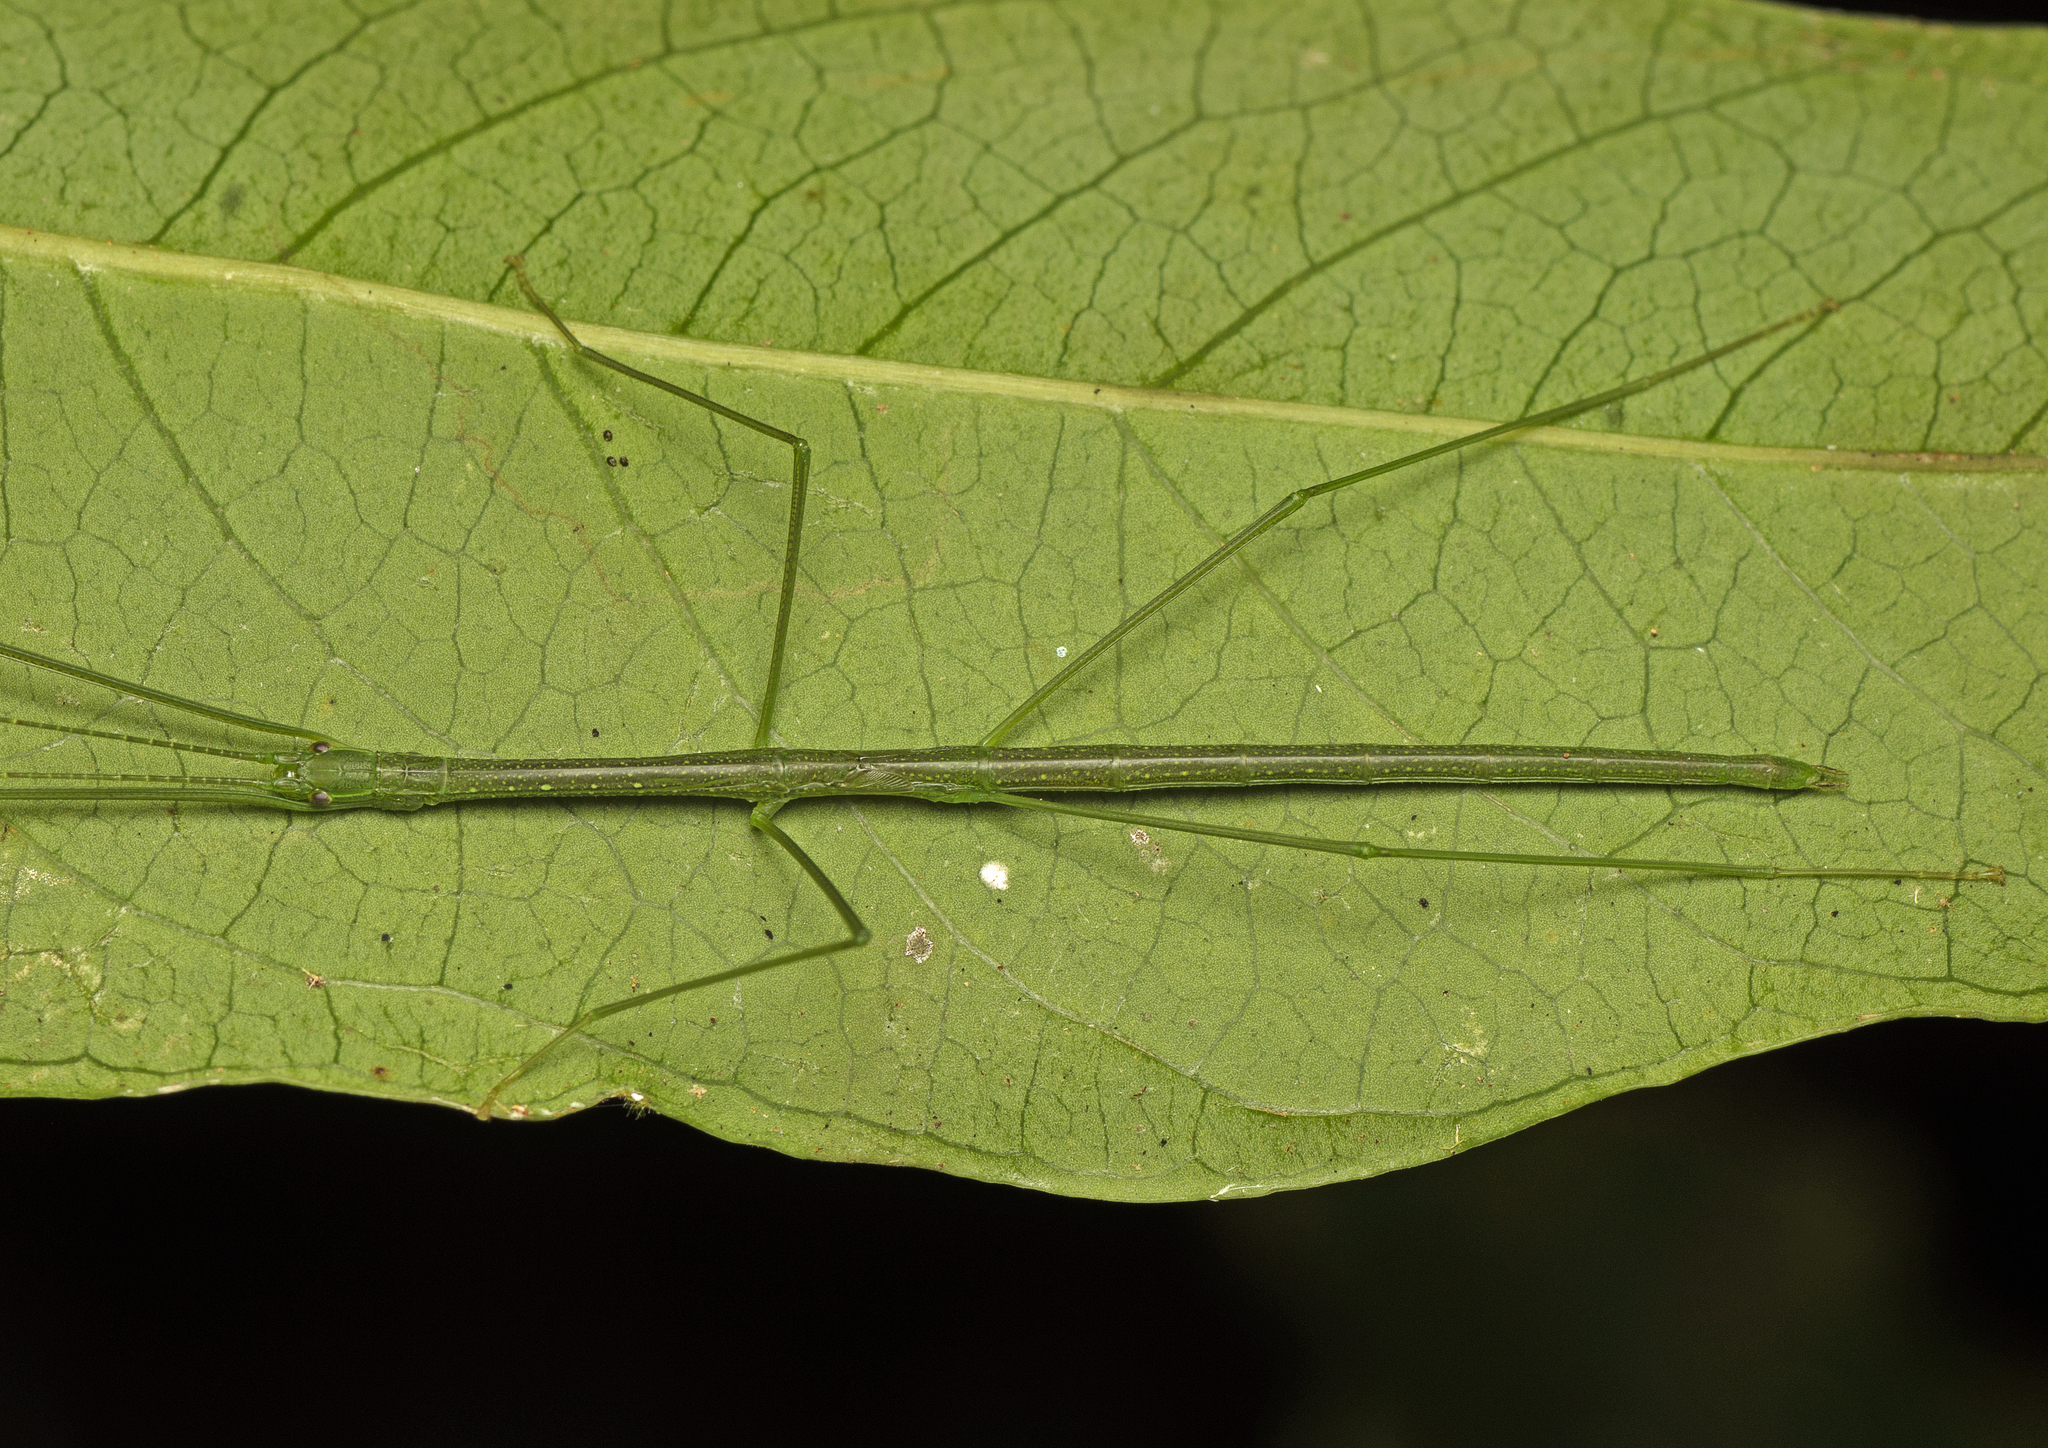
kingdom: Animalia
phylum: Arthropoda
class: Insecta
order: Phasmida
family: Lonchodidae
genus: Sipyloidea
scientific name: Sipyloidea rentzi
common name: Rentz's sipyloidea stick-insect
